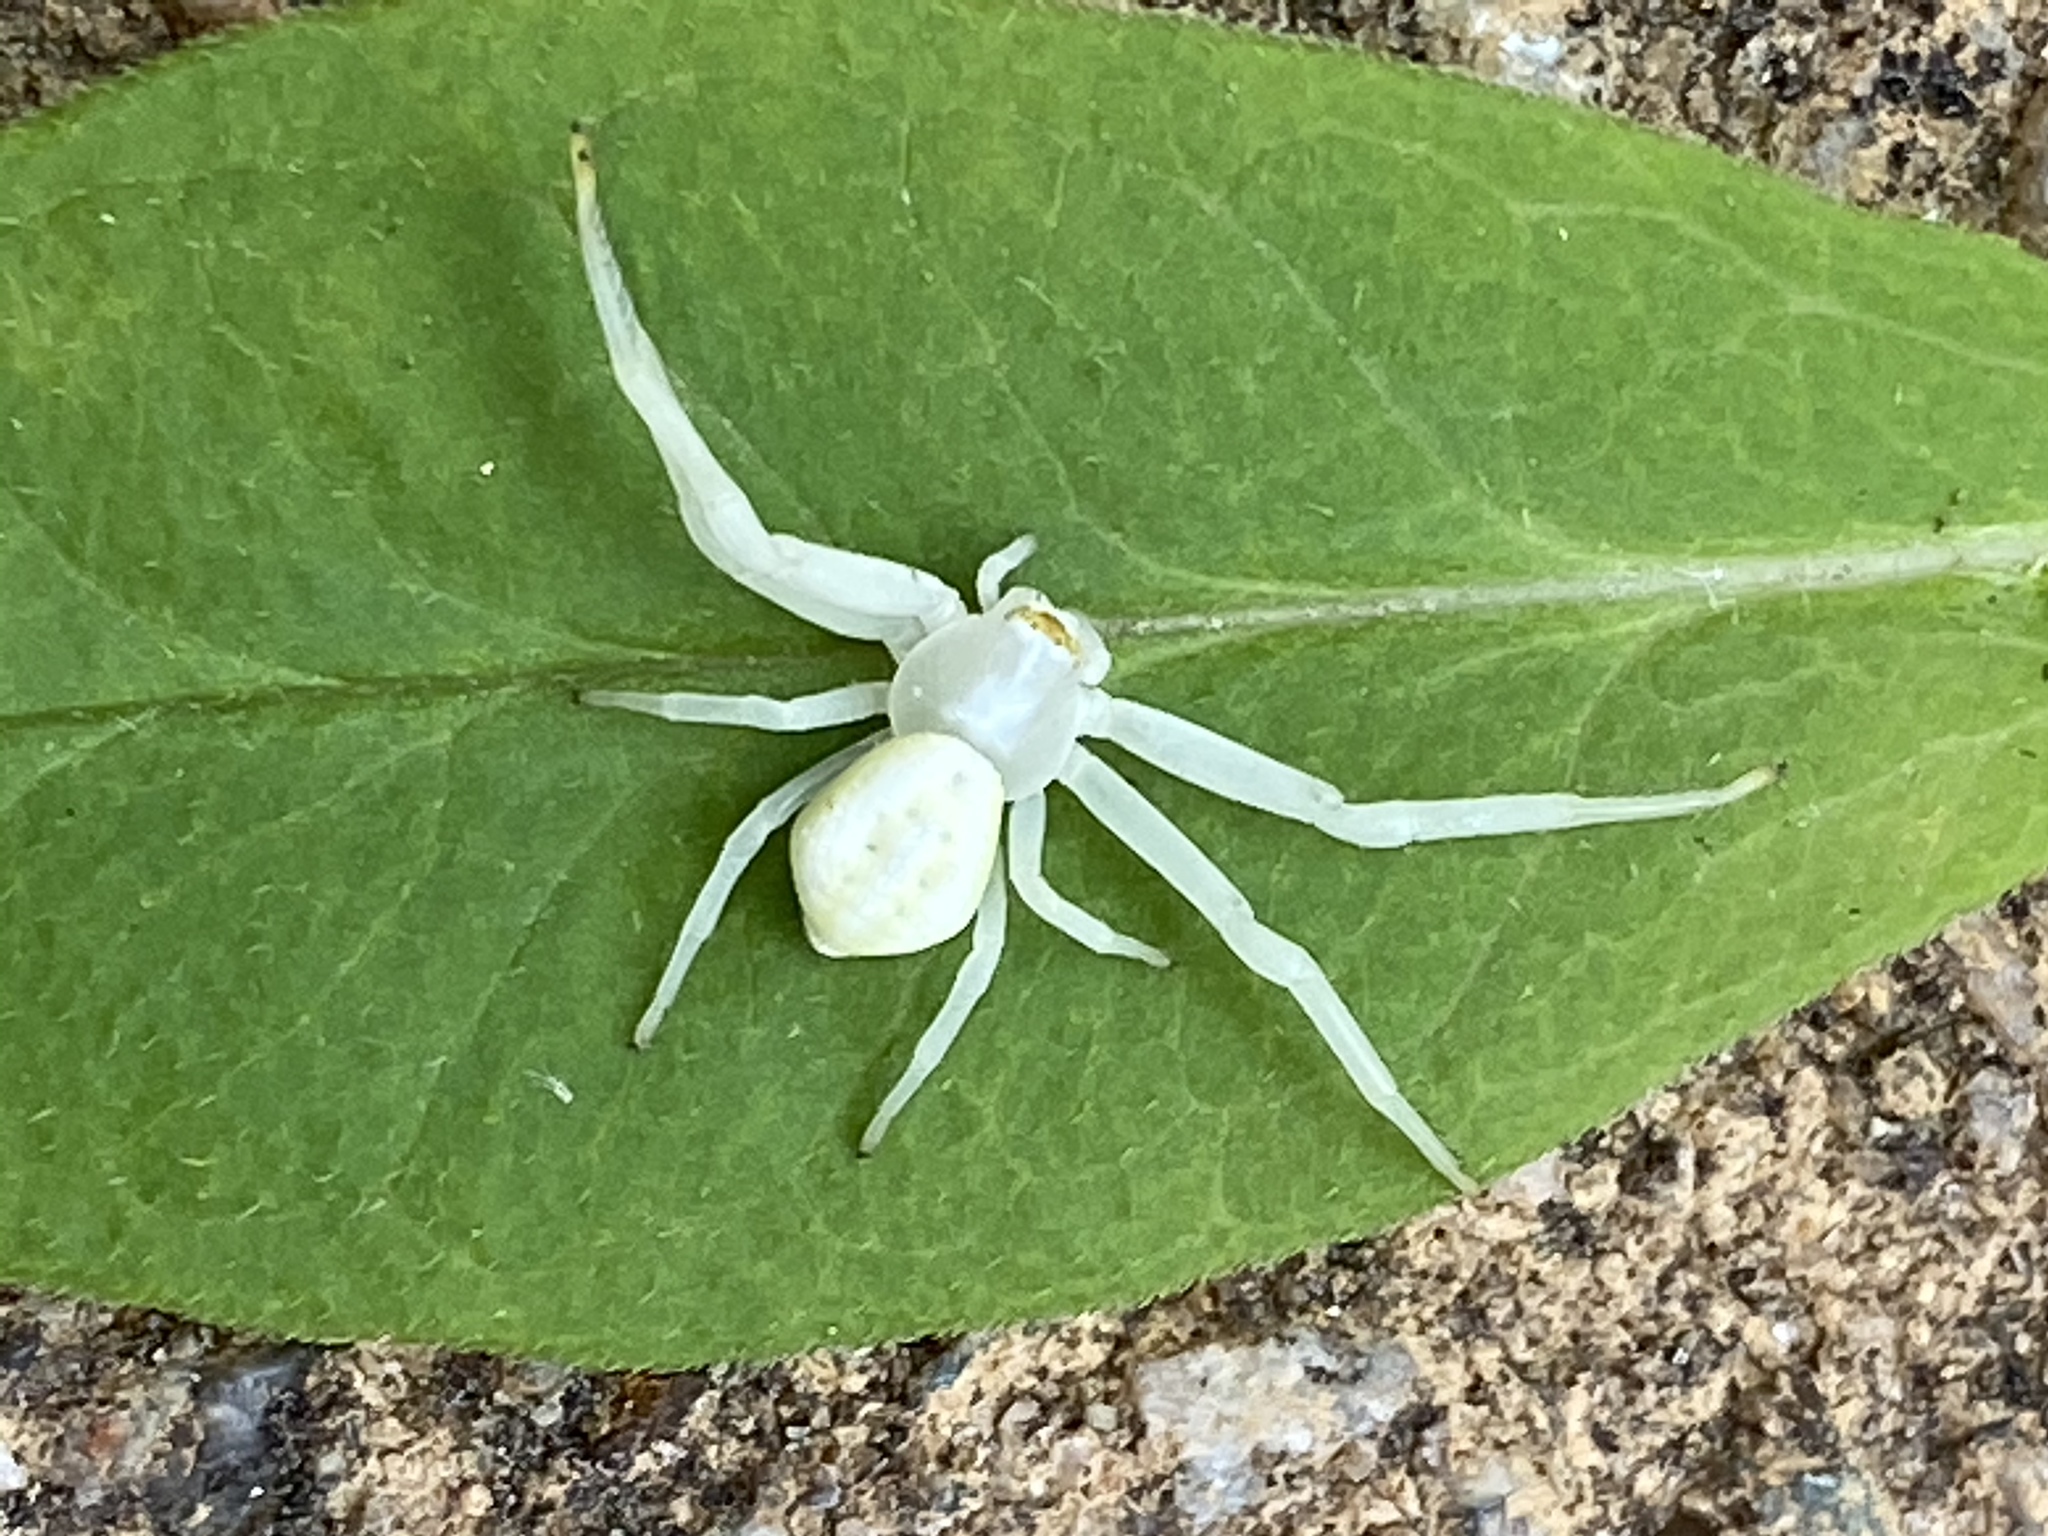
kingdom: Animalia
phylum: Arthropoda
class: Arachnida
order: Araneae
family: Thomisidae
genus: Misumena
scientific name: Misumena vatia
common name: Goldenrod crab spider
